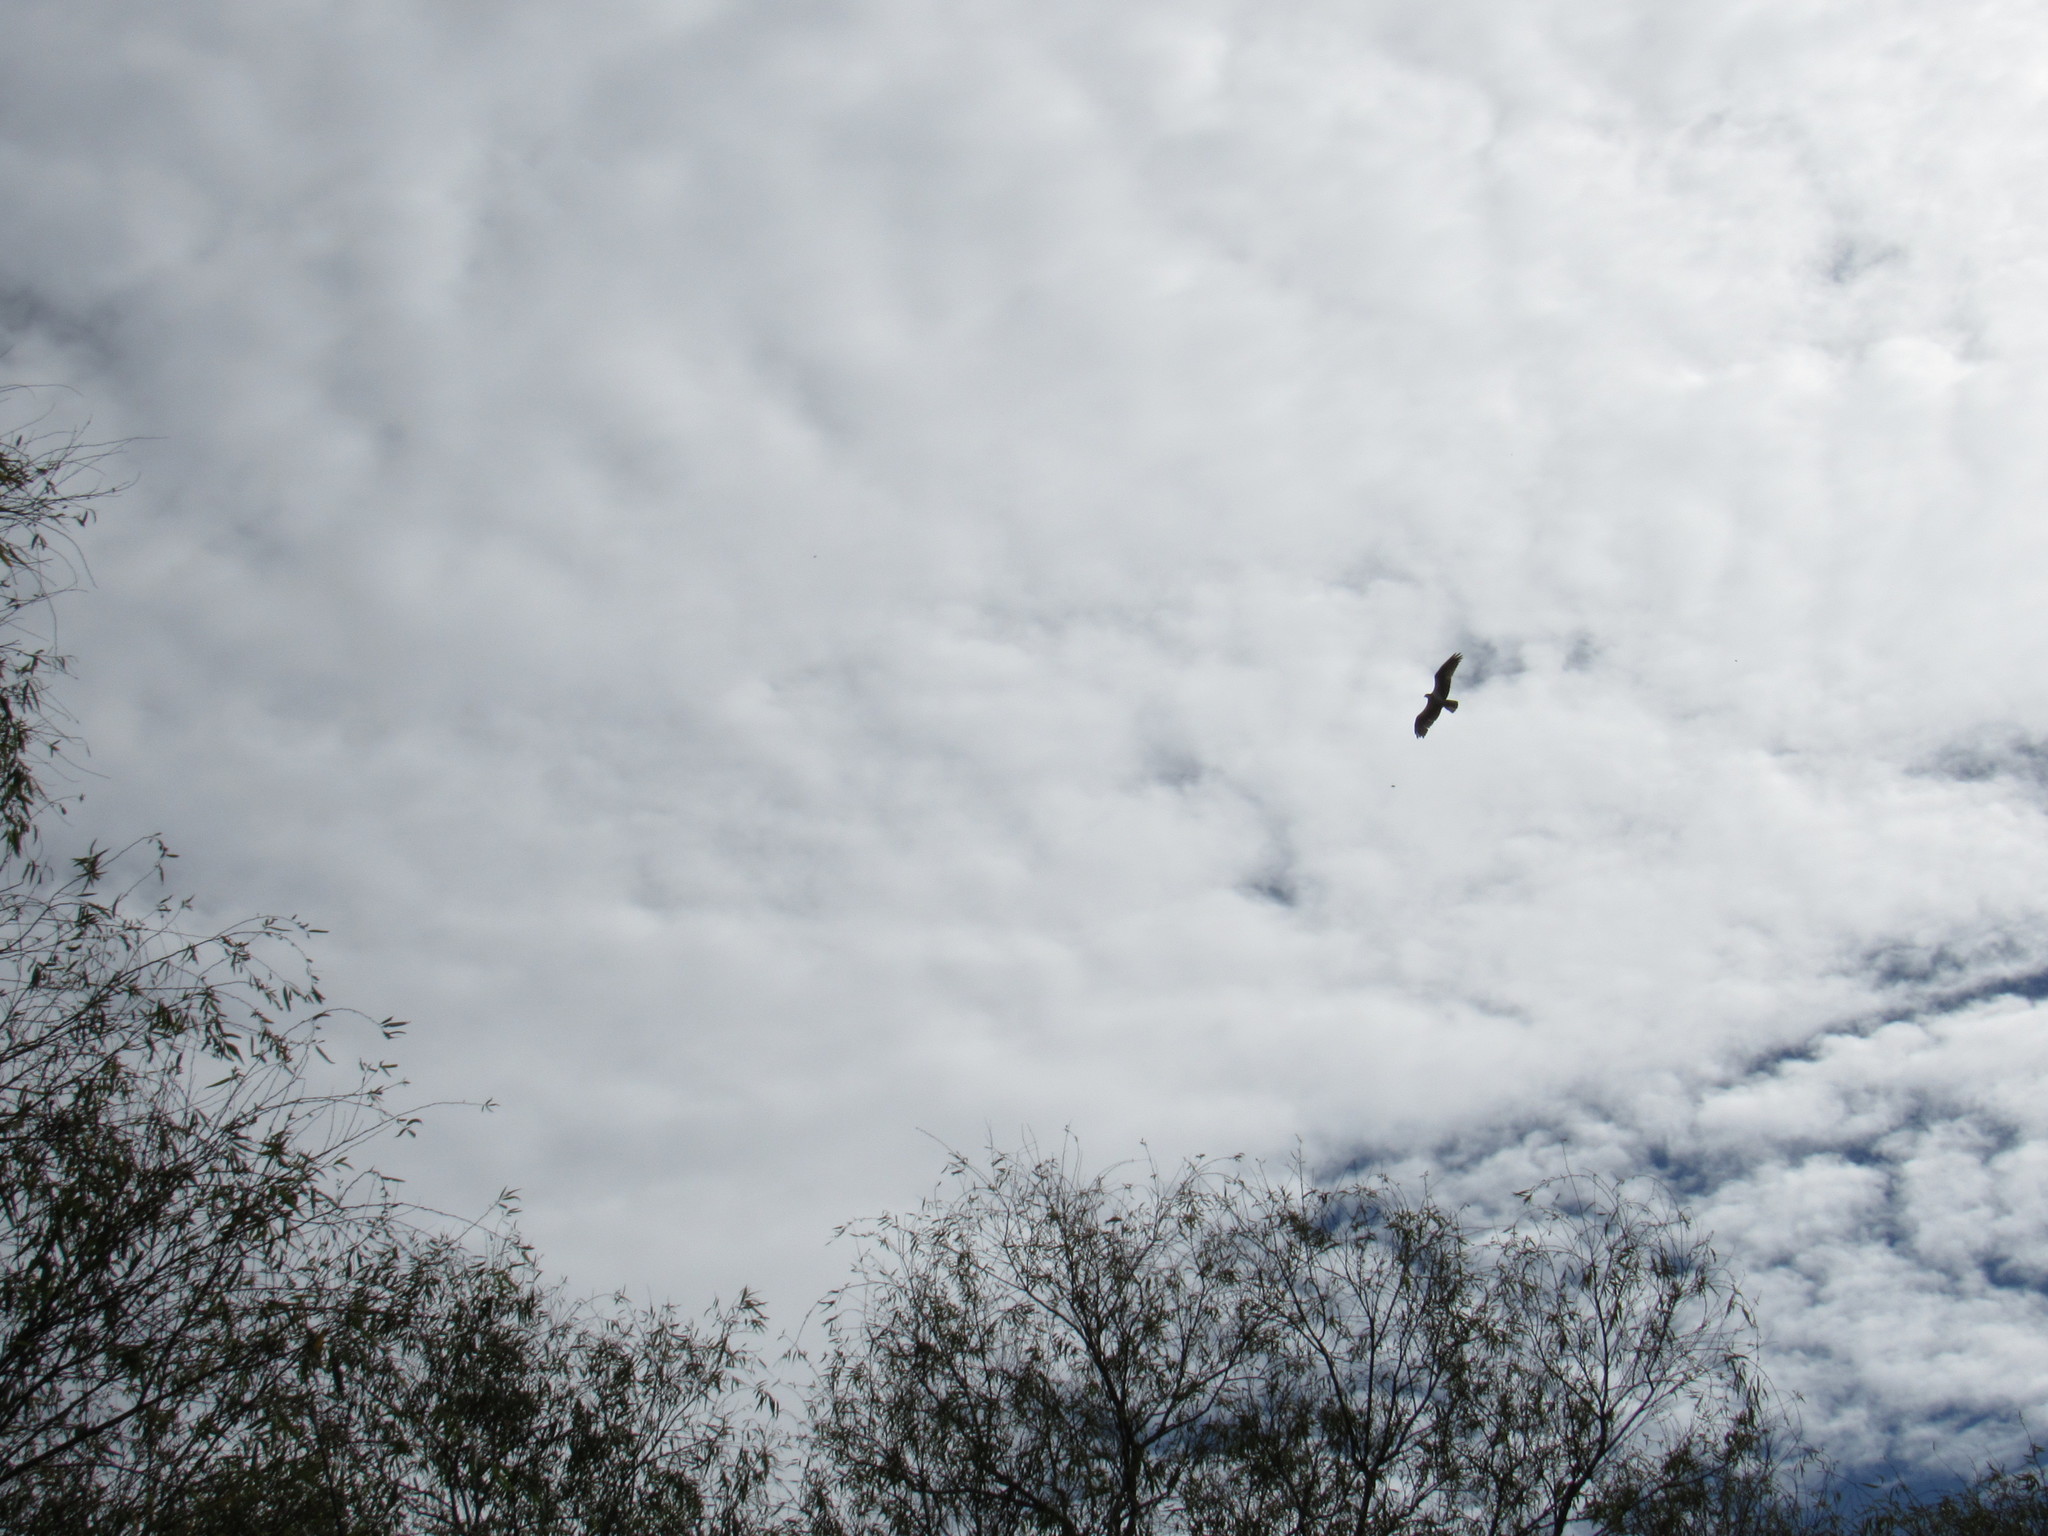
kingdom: Animalia
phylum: Chordata
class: Aves
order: Accipitriformes
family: Pandionidae
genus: Pandion
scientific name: Pandion haliaetus
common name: Osprey
